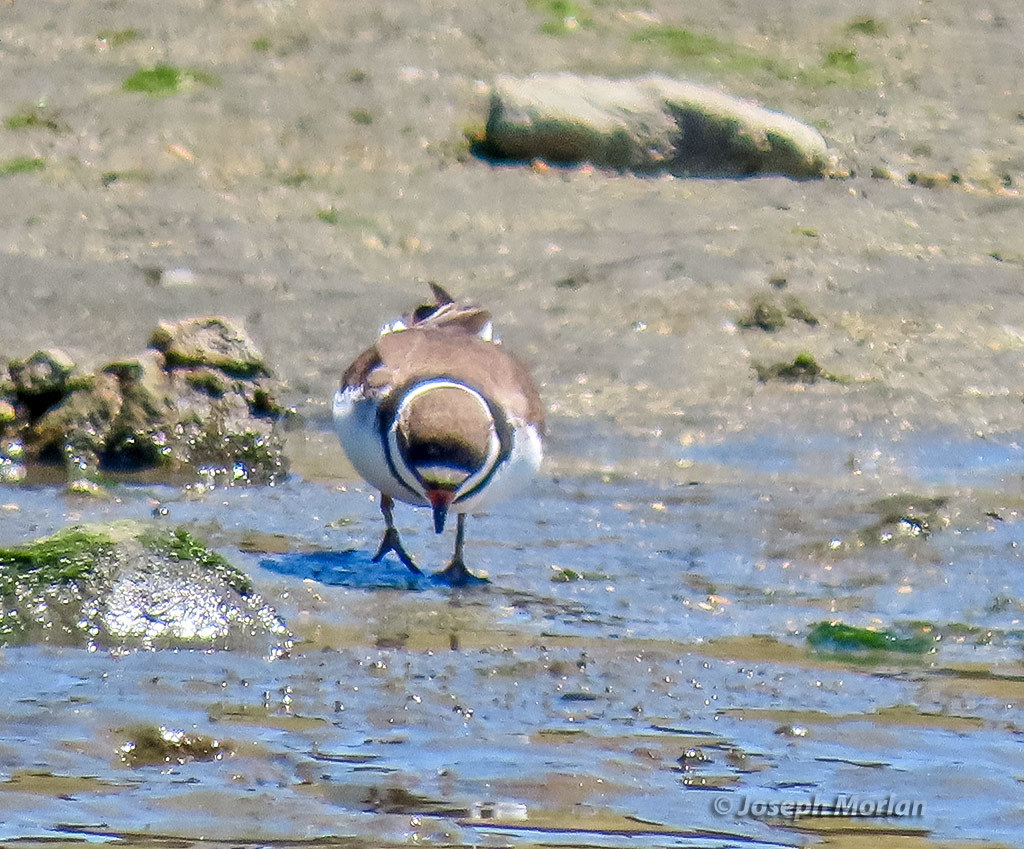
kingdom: Animalia
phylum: Chordata
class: Aves
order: Charadriiformes
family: Charadriidae
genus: Charadrius
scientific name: Charadrius semipalmatus
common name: Semipalmated plover
